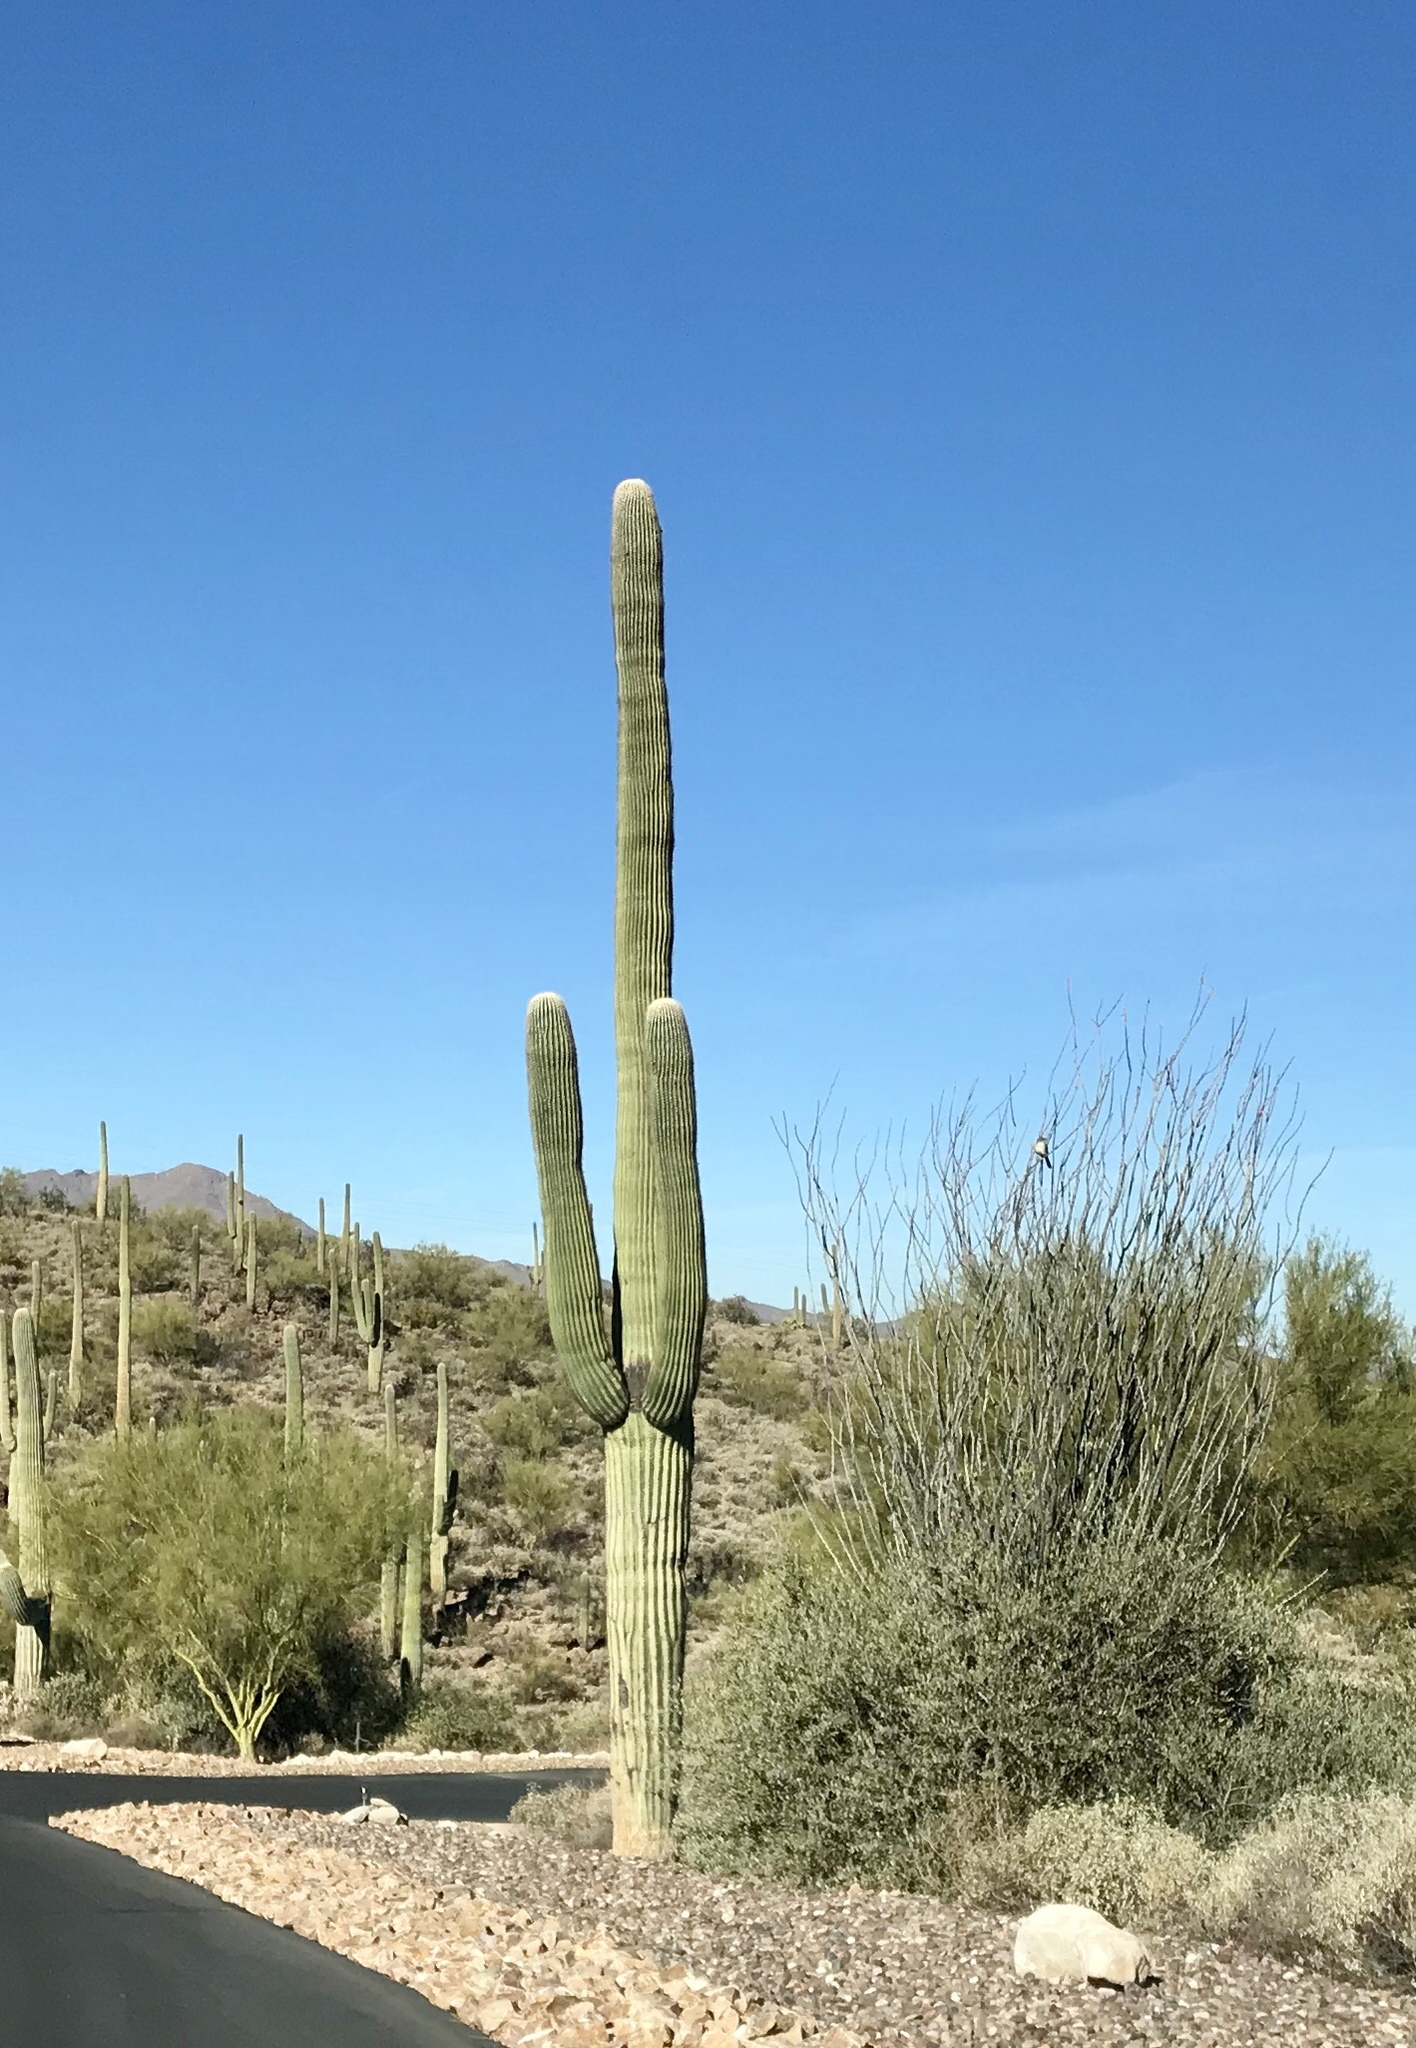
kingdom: Plantae
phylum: Tracheophyta
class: Magnoliopsida
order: Caryophyllales
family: Cactaceae
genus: Carnegiea
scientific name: Carnegiea gigantea
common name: Saguaro
